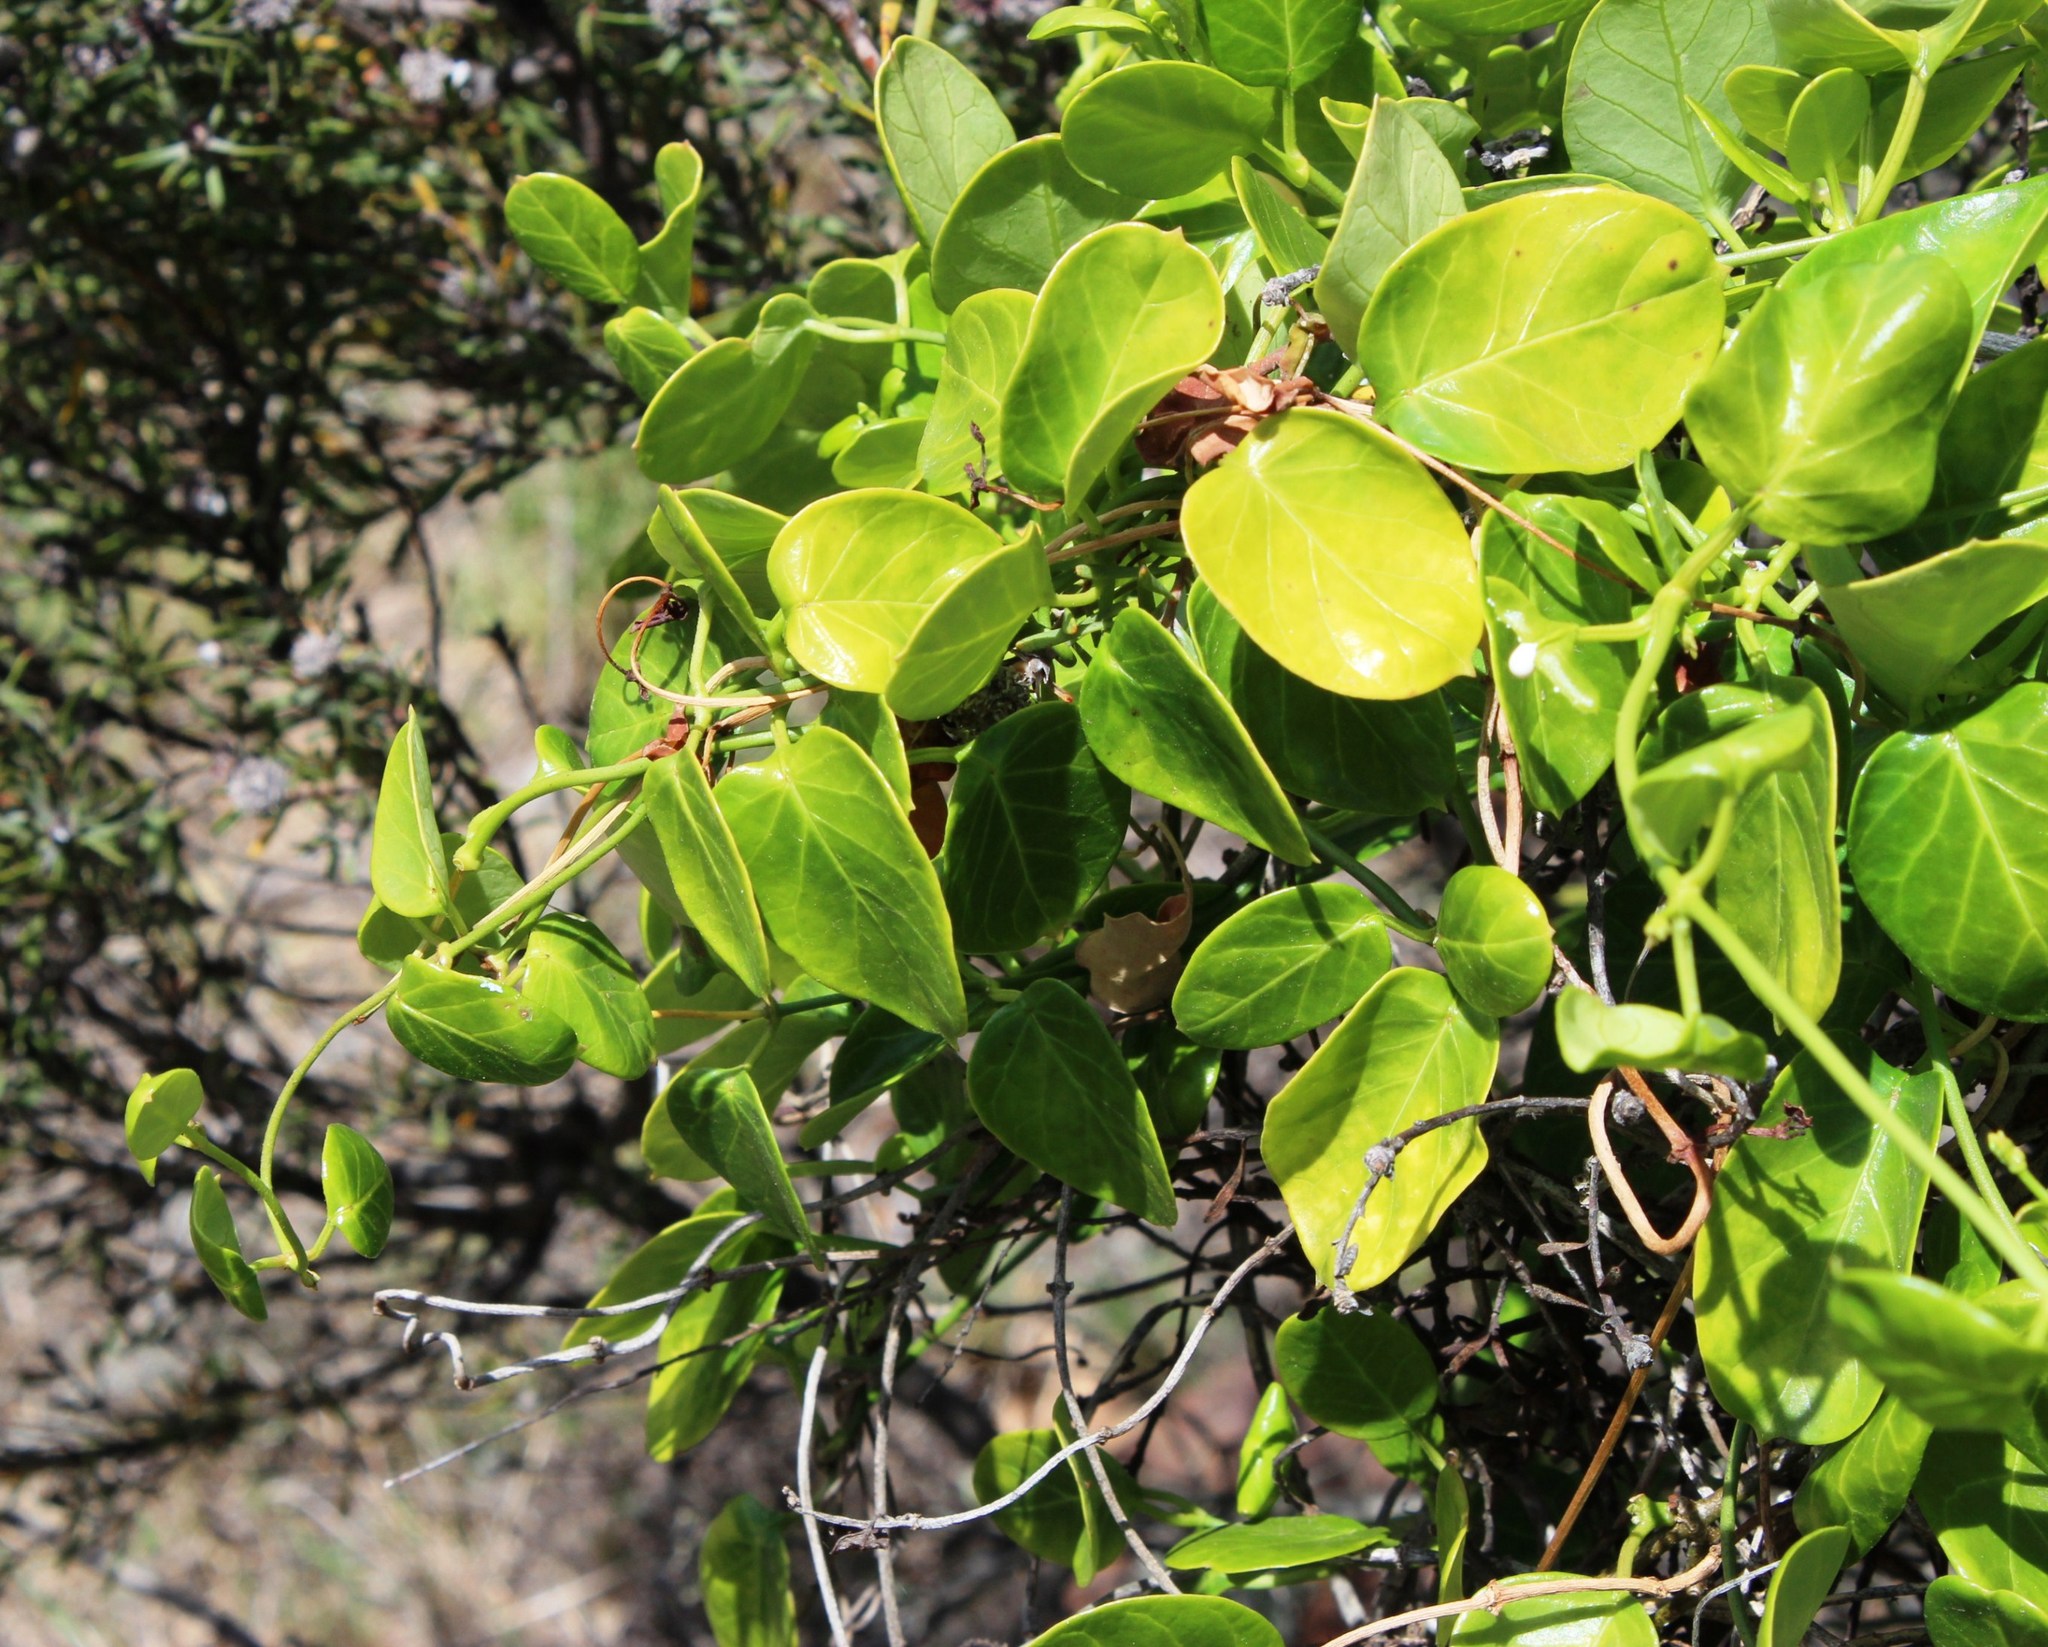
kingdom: Plantae
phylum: Tracheophyta
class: Magnoliopsida
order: Gentianales
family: Apocynaceae
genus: Cynanchum
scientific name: Cynanchum obtusifolium
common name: Monkey-rope
